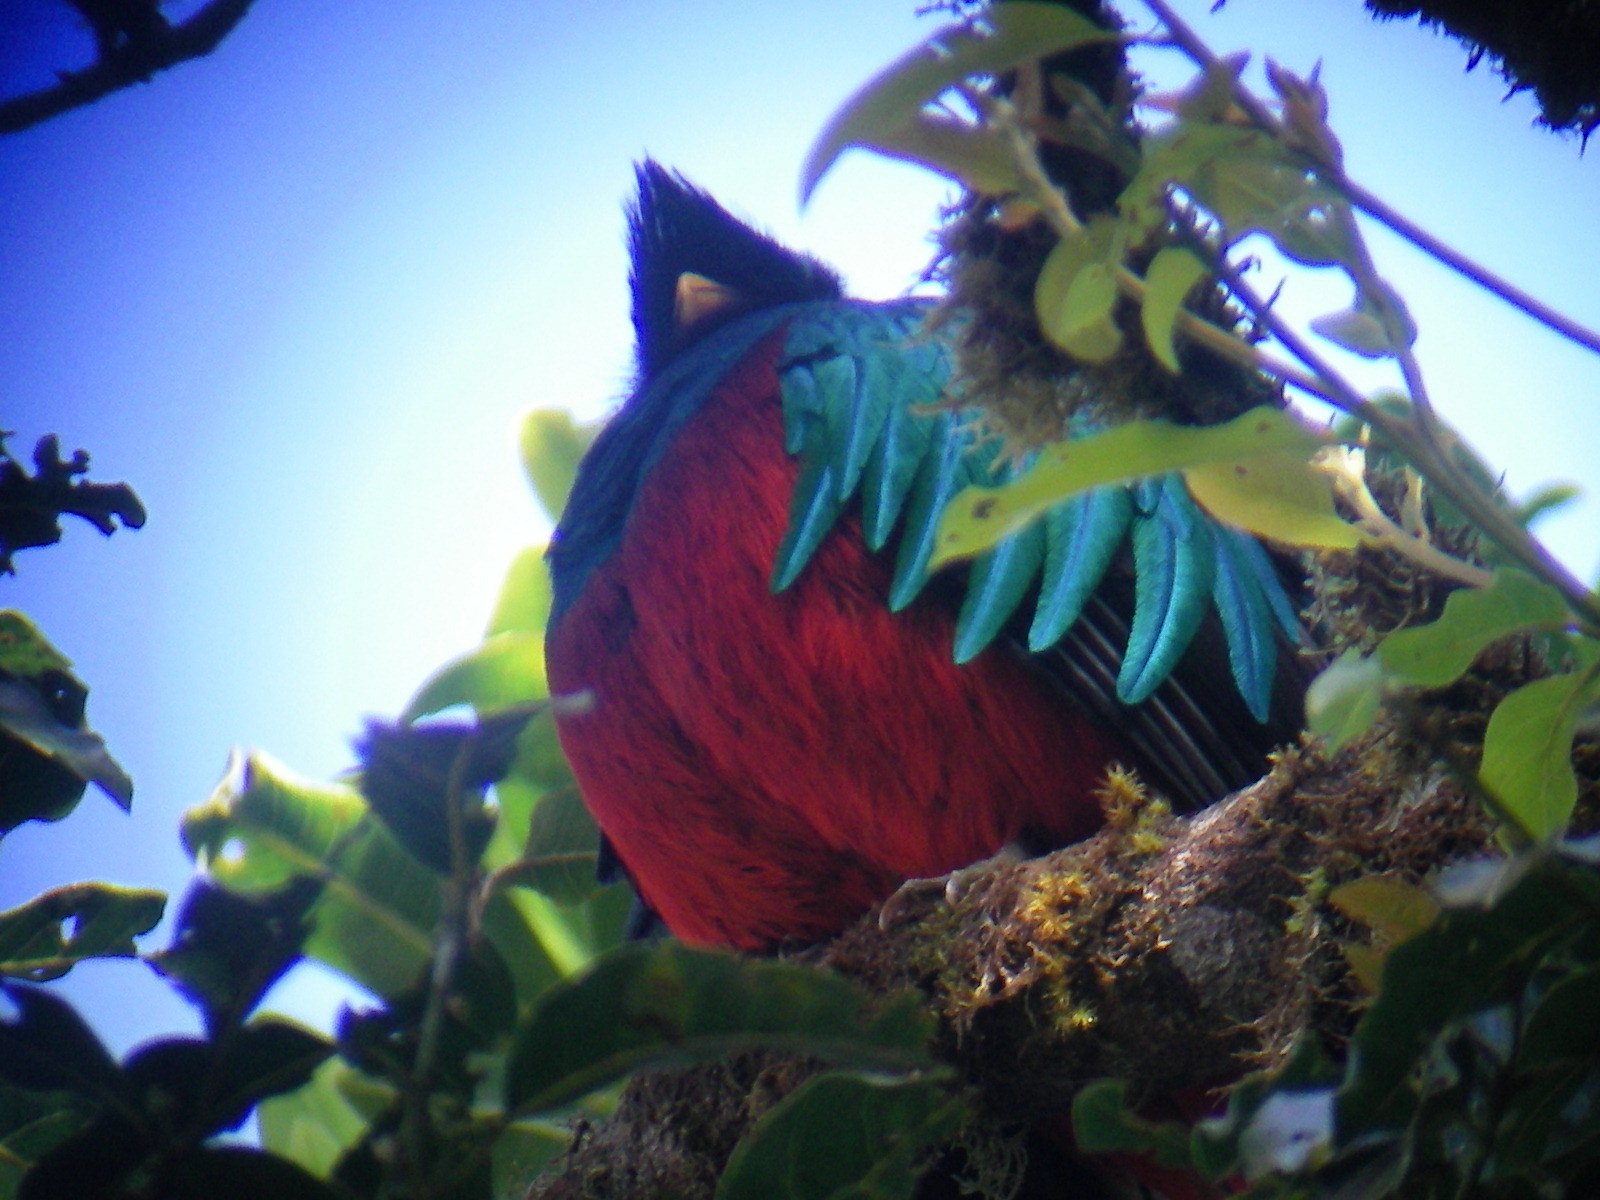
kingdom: Animalia
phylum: Chordata
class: Aves
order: Trogoniformes
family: Trogonidae
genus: Pharomachrus
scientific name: Pharomachrus mocinno
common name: Resplendent quetzal
